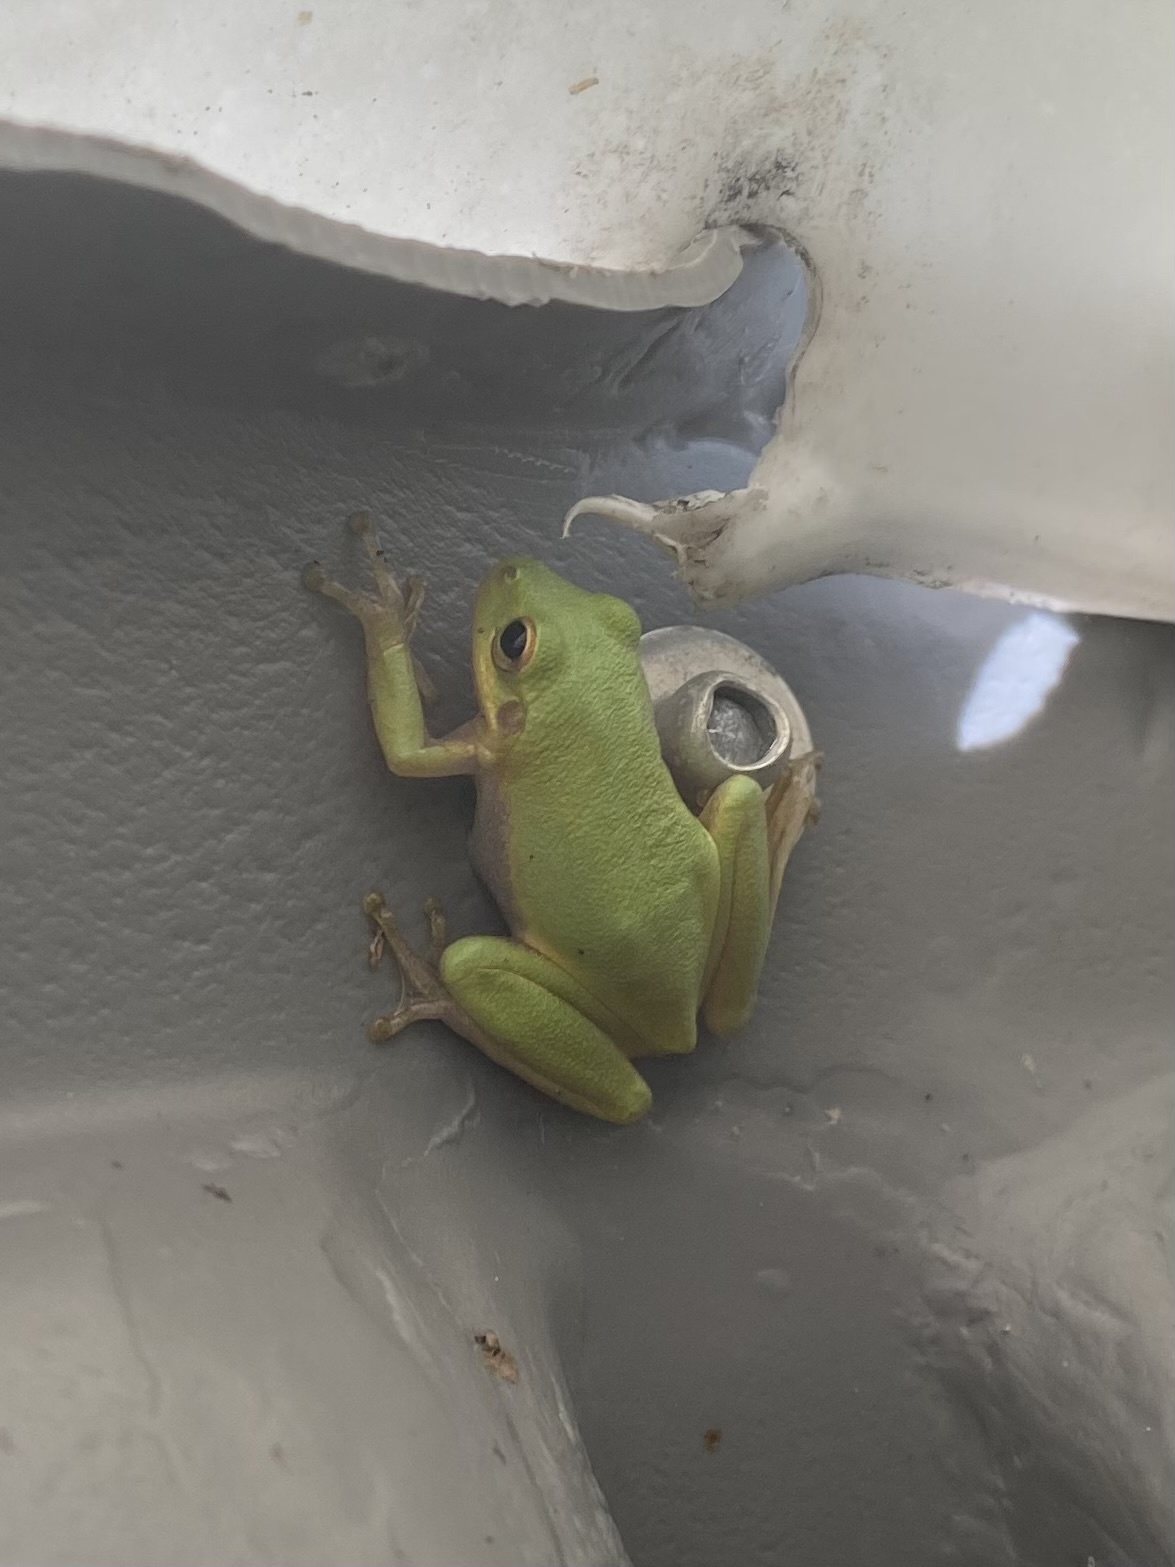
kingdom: Animalia
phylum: Chordata
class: Amphibia
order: Anura
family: Hylidae
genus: Dryophytes
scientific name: Dryophytes squirellus
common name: Squirrel treefrog
